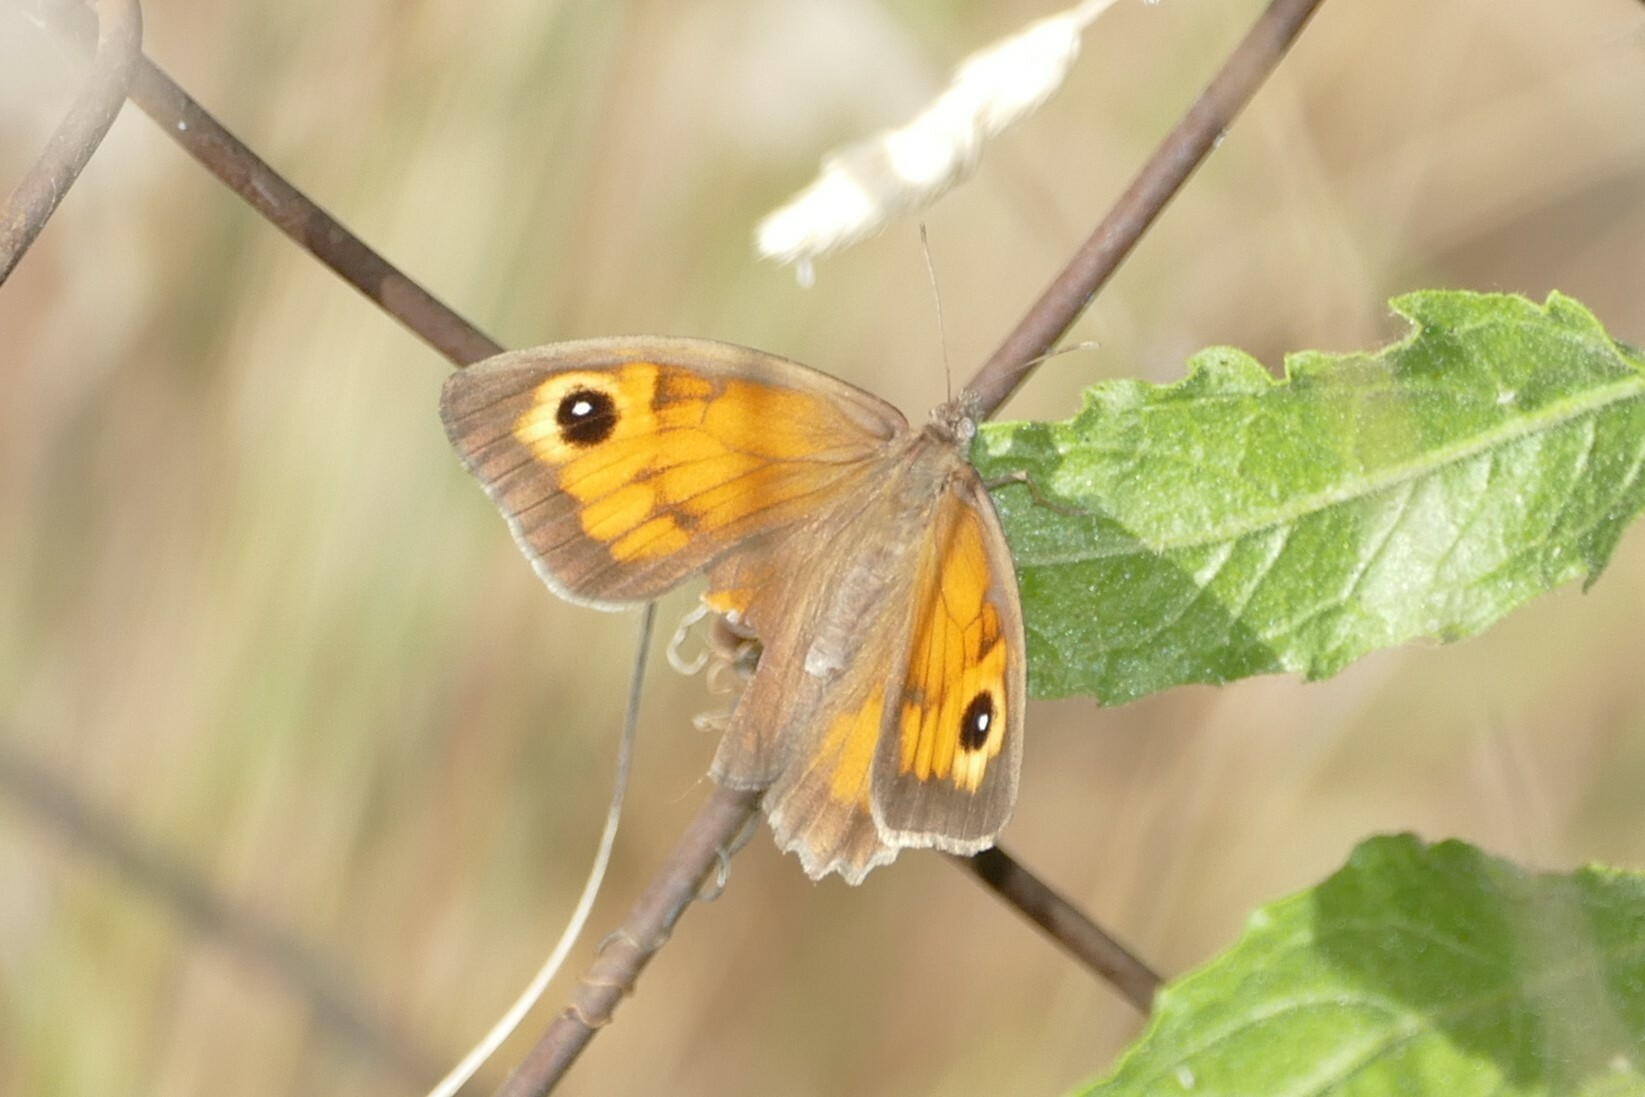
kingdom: Animalia
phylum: Arthropoda
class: Insecta
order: Lepidoptera
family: Nymphalidae
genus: Maniola
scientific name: Maniola jurtina
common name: Meadow brown
